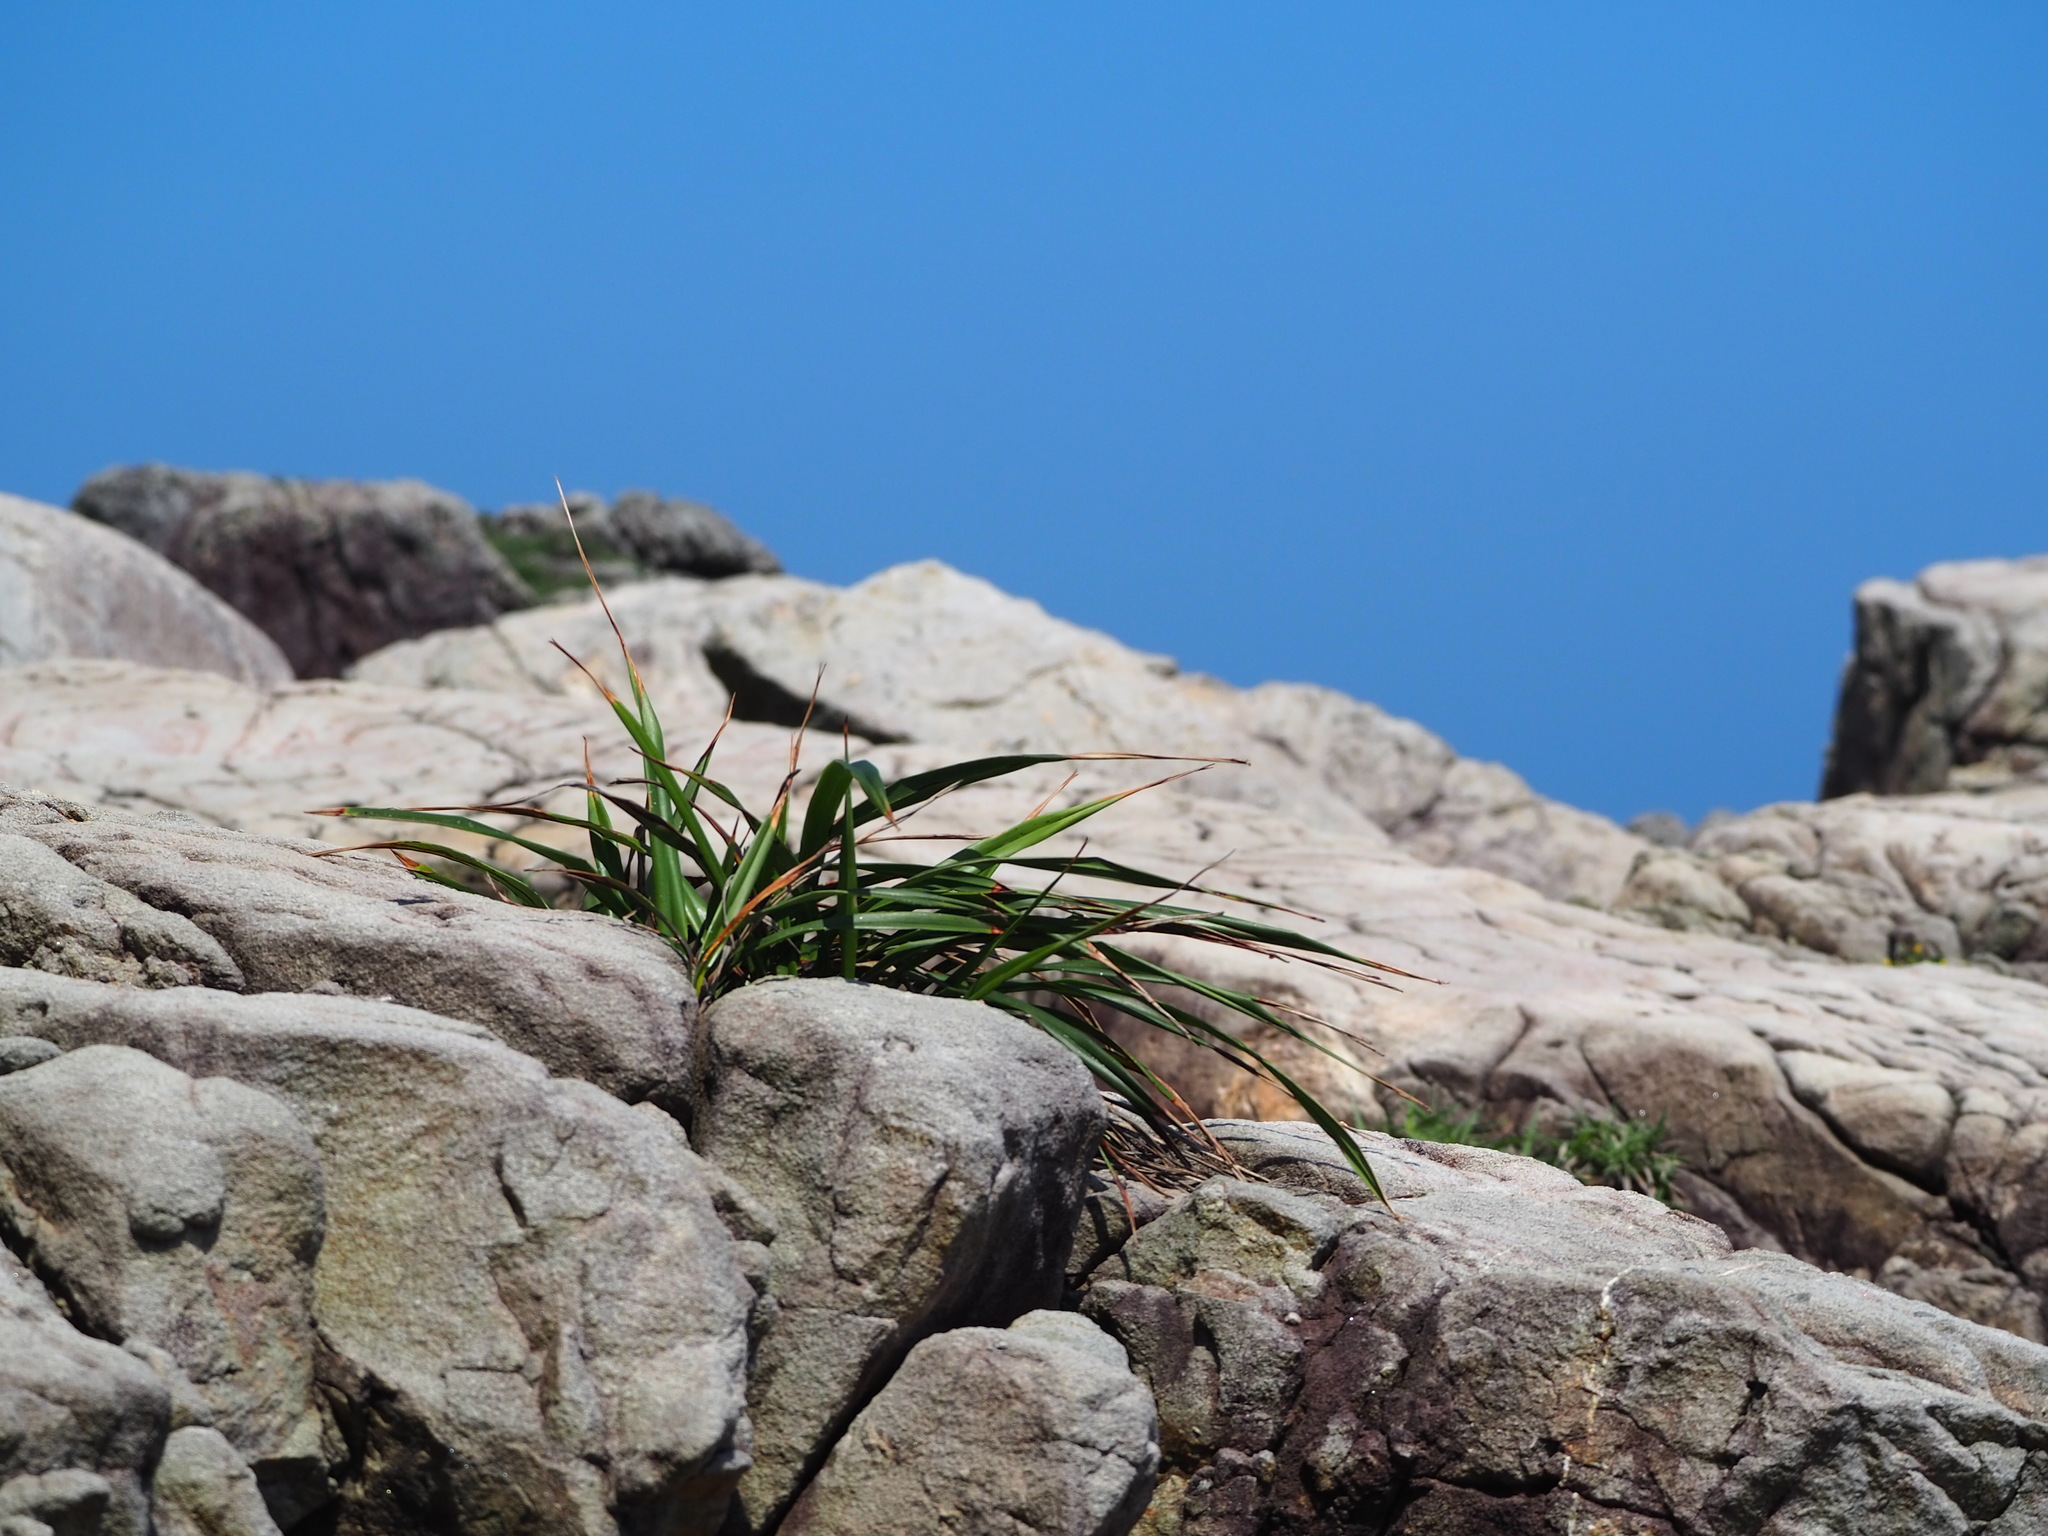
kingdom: Plantae
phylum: Tracheophyta
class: Liliopsida
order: Asparagales
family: Asphodelaceae
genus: Dianella
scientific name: Dianella ensifolia
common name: New zealand lilyplant
